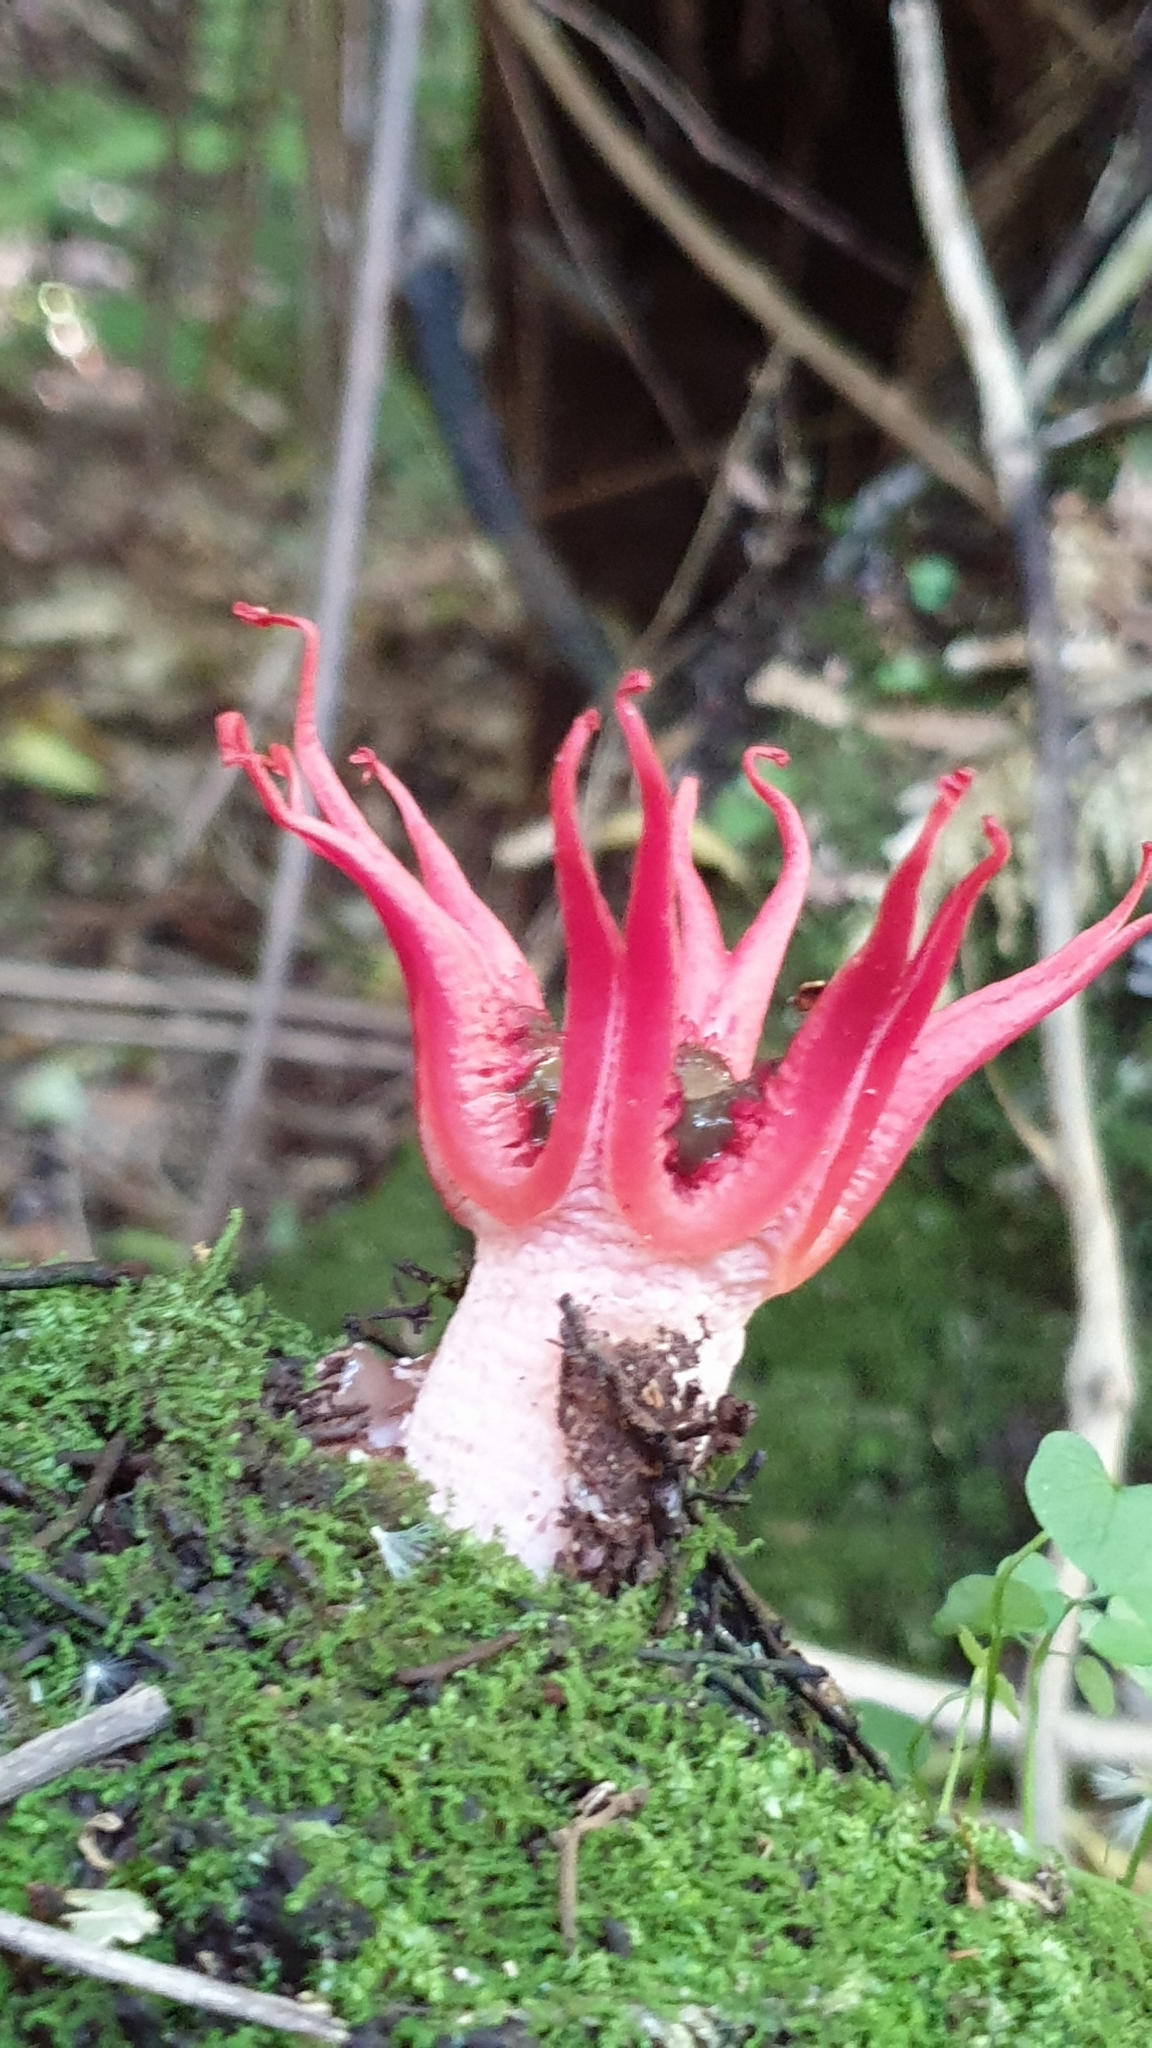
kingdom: Fungi
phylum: Basidiomycota
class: Agaricomycetes
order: Phallales
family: Phallaceae
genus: Aseroe
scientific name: Aseroe rubra
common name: Starfish fungus
